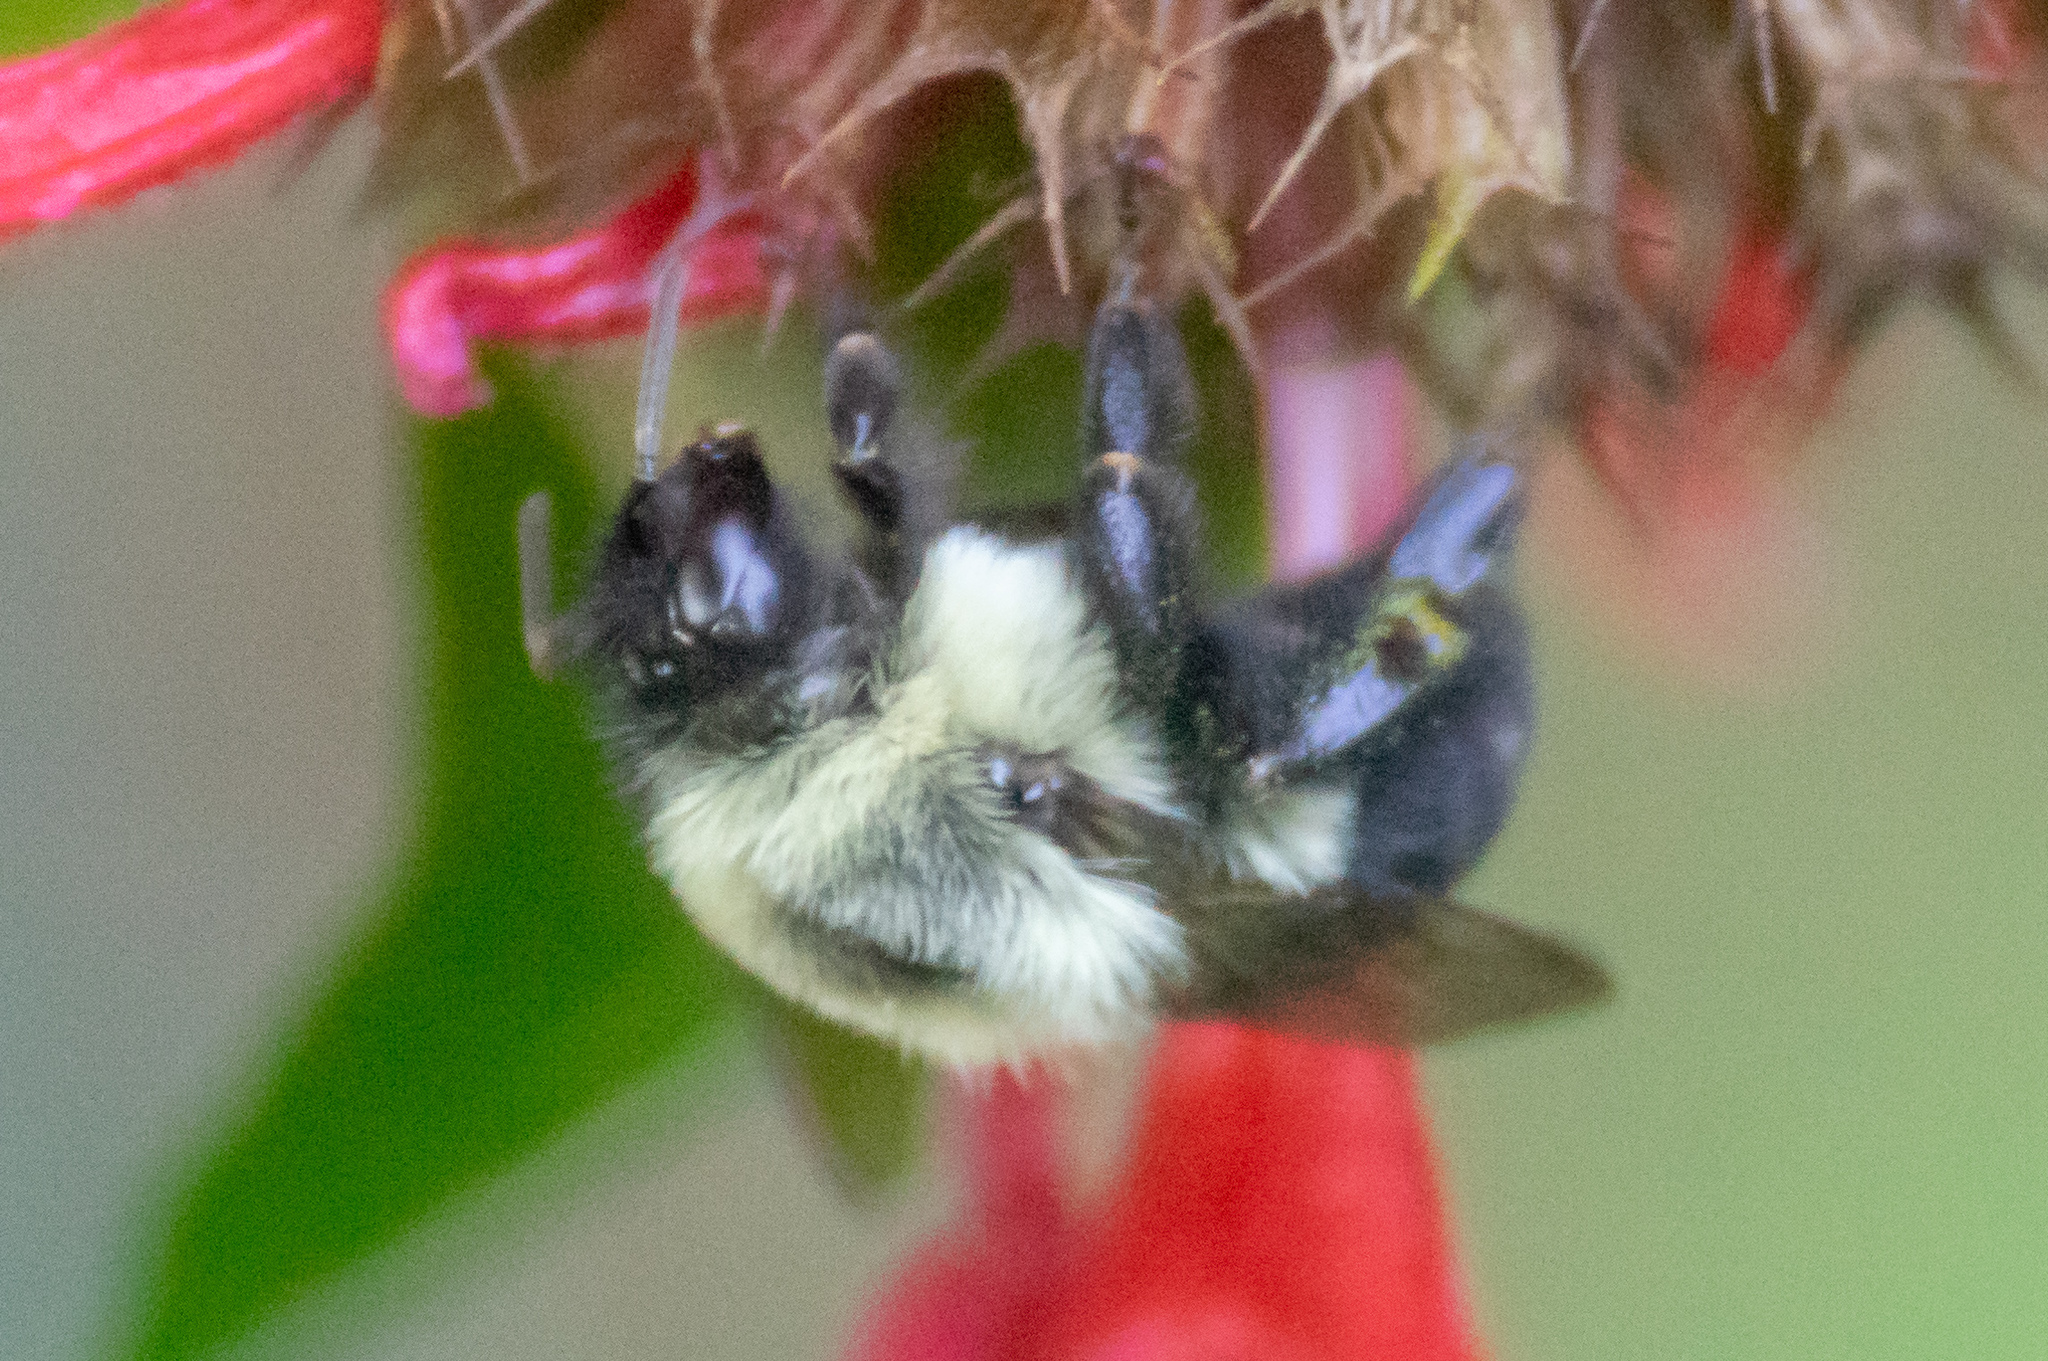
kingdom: Animalia
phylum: Arthropoda
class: Insecta
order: Hymenoptera
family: Apidae
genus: Bombus
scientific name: Bombus impatiens
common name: Common eastern bumble bee
